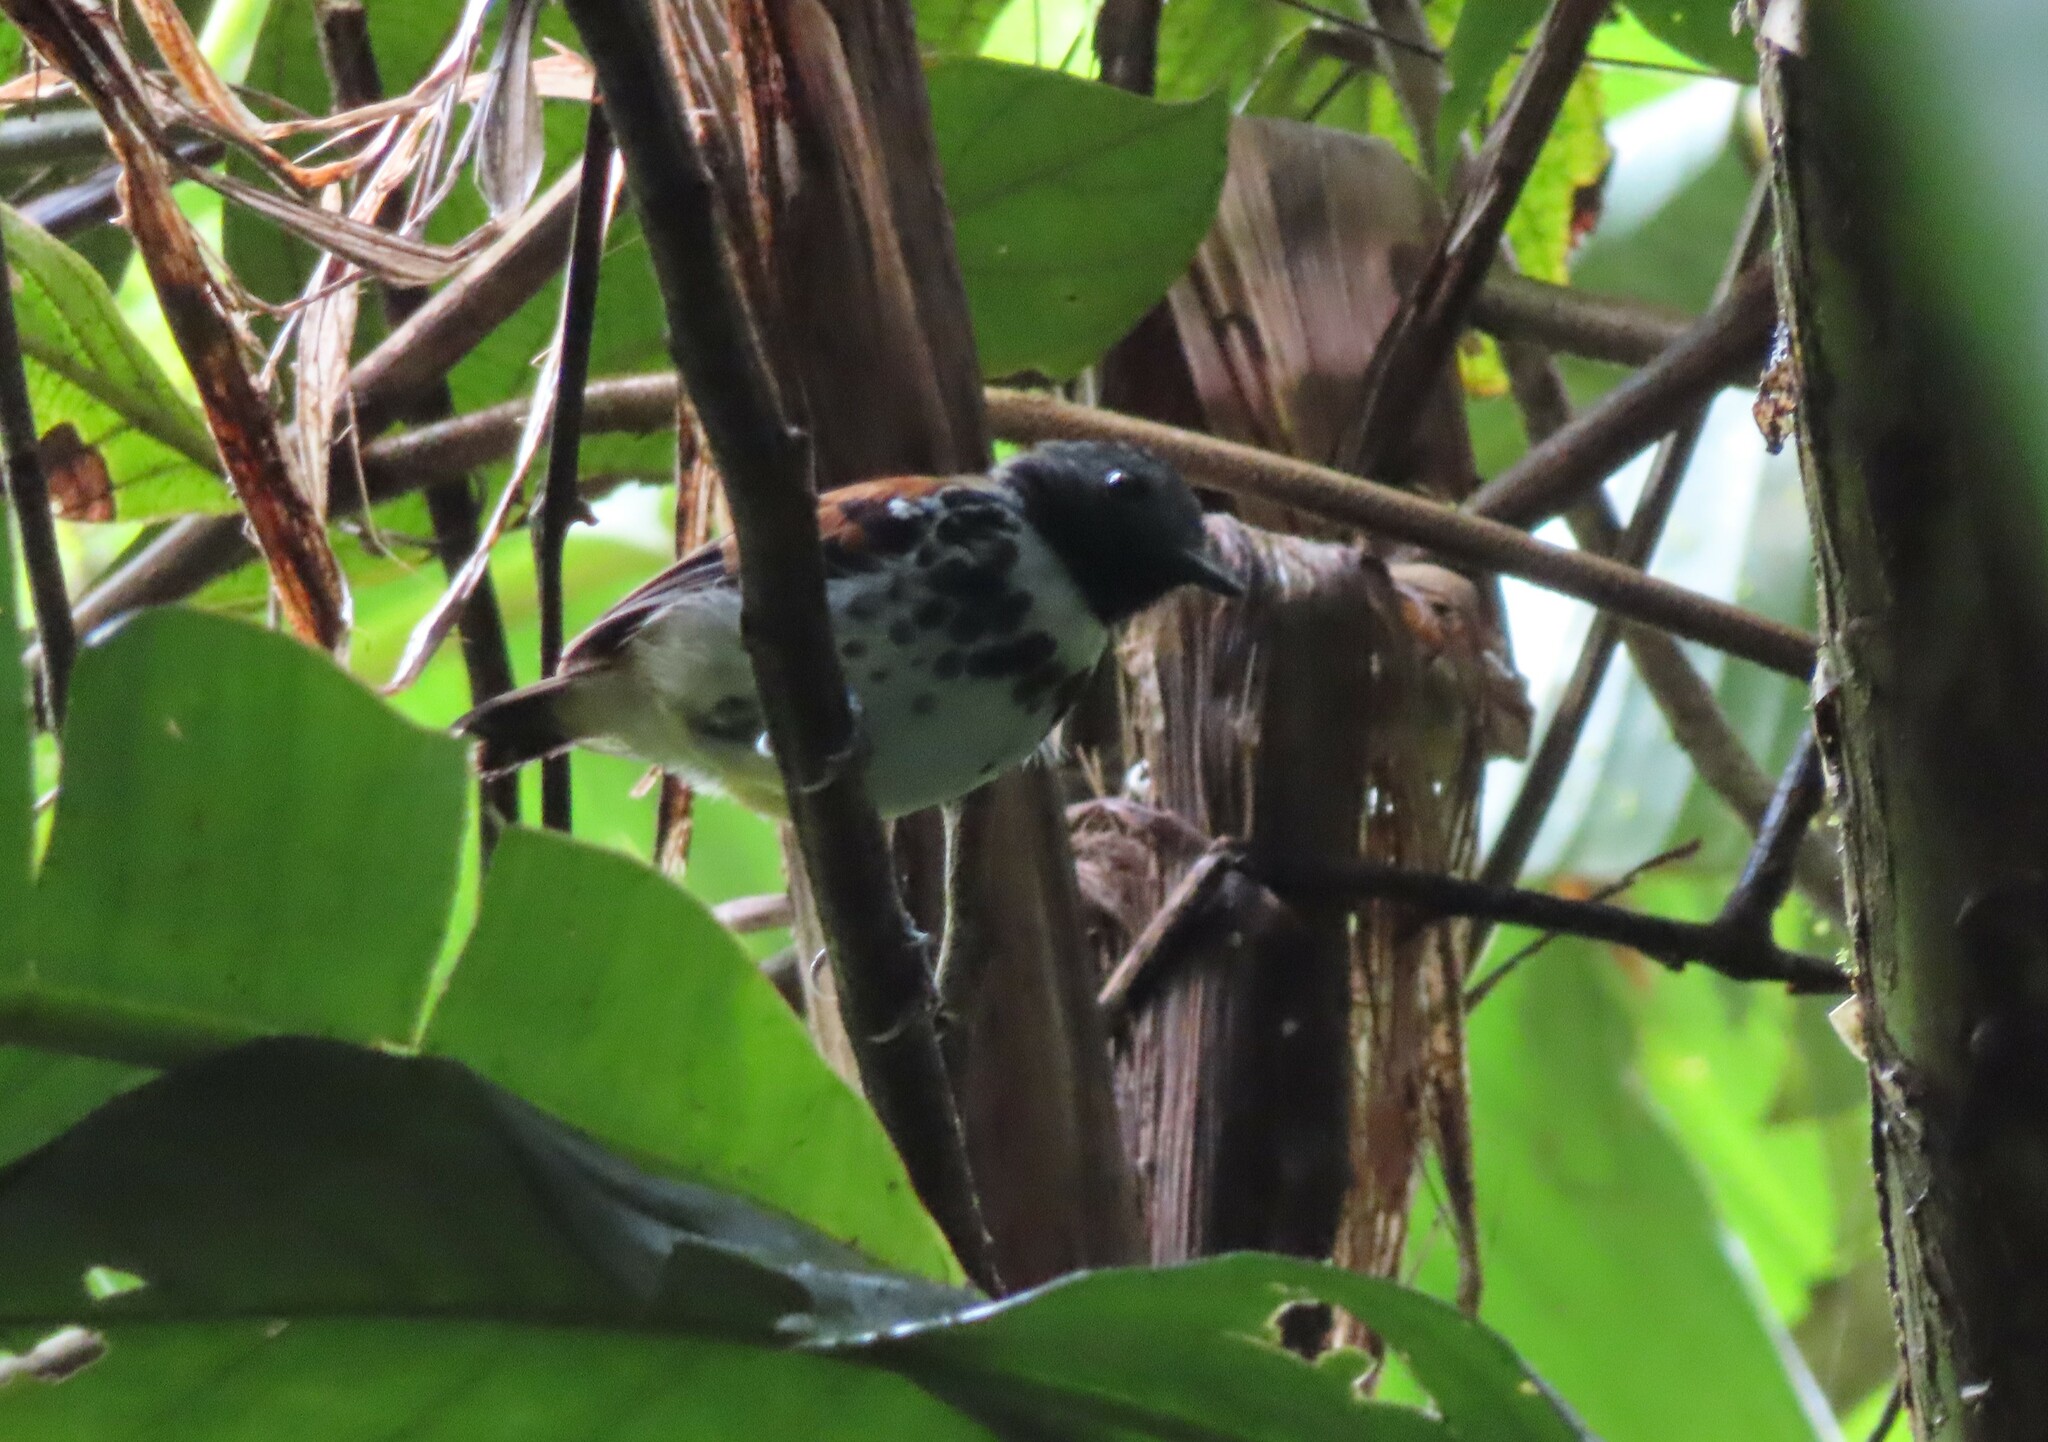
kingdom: Animalia
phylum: Chordata
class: Aves
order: Passeriformes
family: Thamnophilidae
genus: Hylophylax
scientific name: Hylophylax naevioides
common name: Spotted antbird
